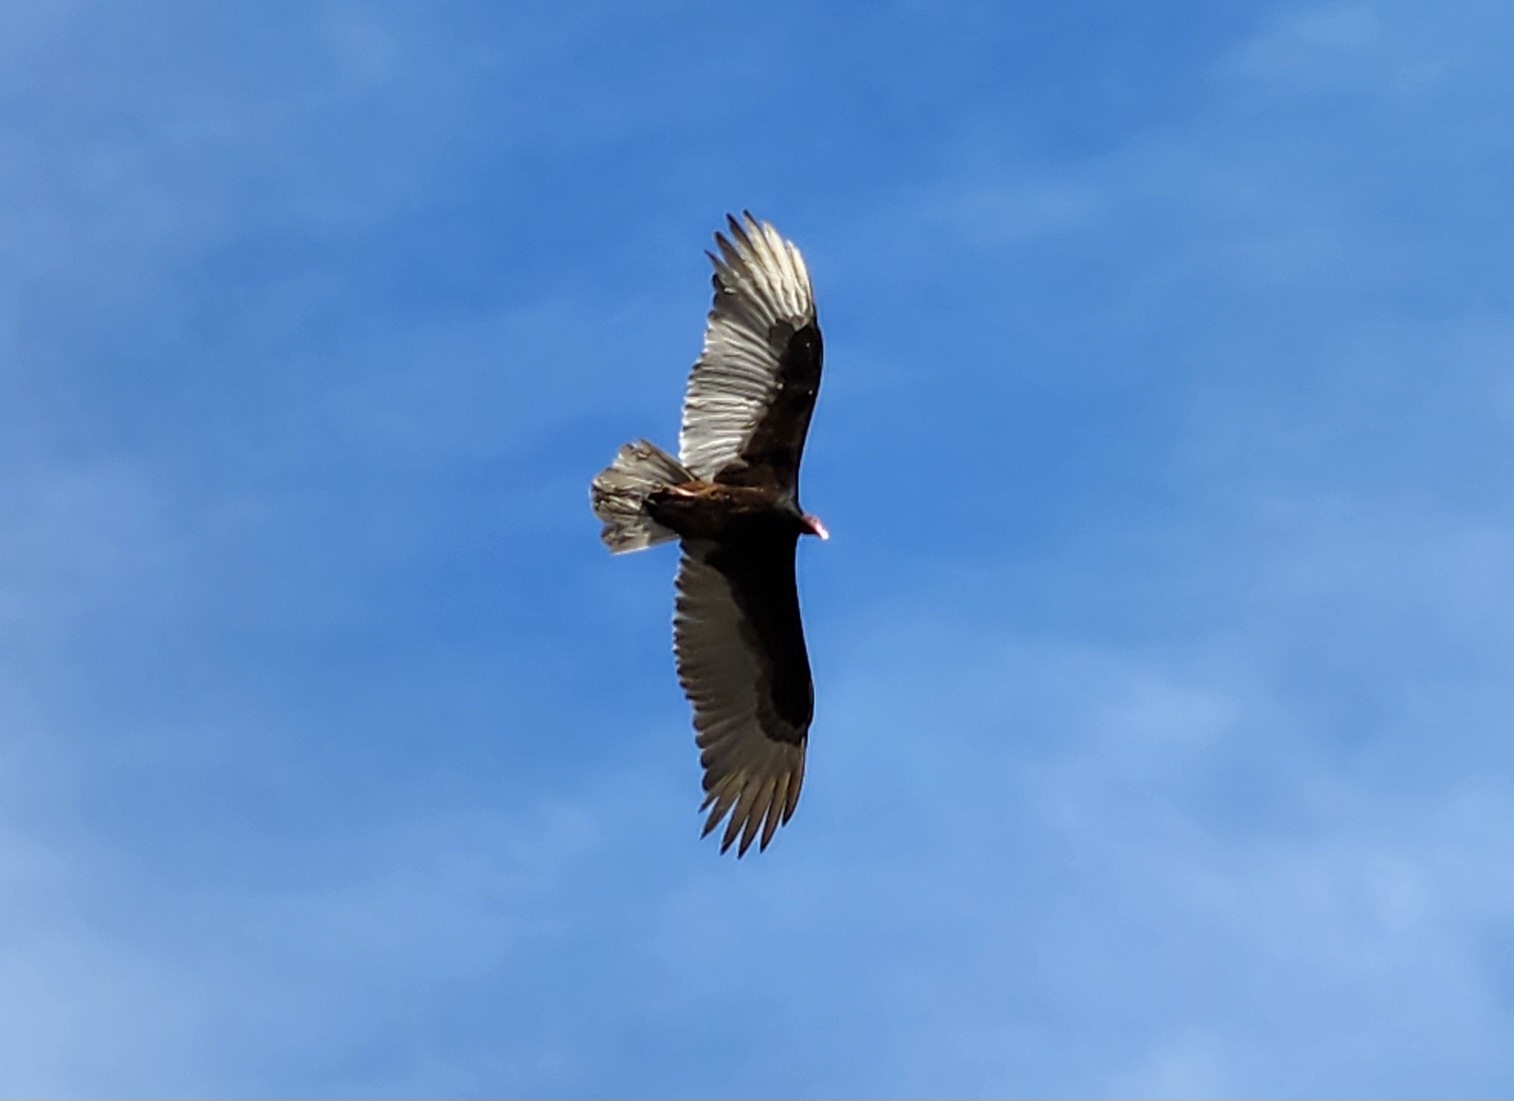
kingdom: Animalia
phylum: Chordata
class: Aves
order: Accipitriformes
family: Cathartidae
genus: Cathartes
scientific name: Cathartes aura
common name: Turkey vulture
